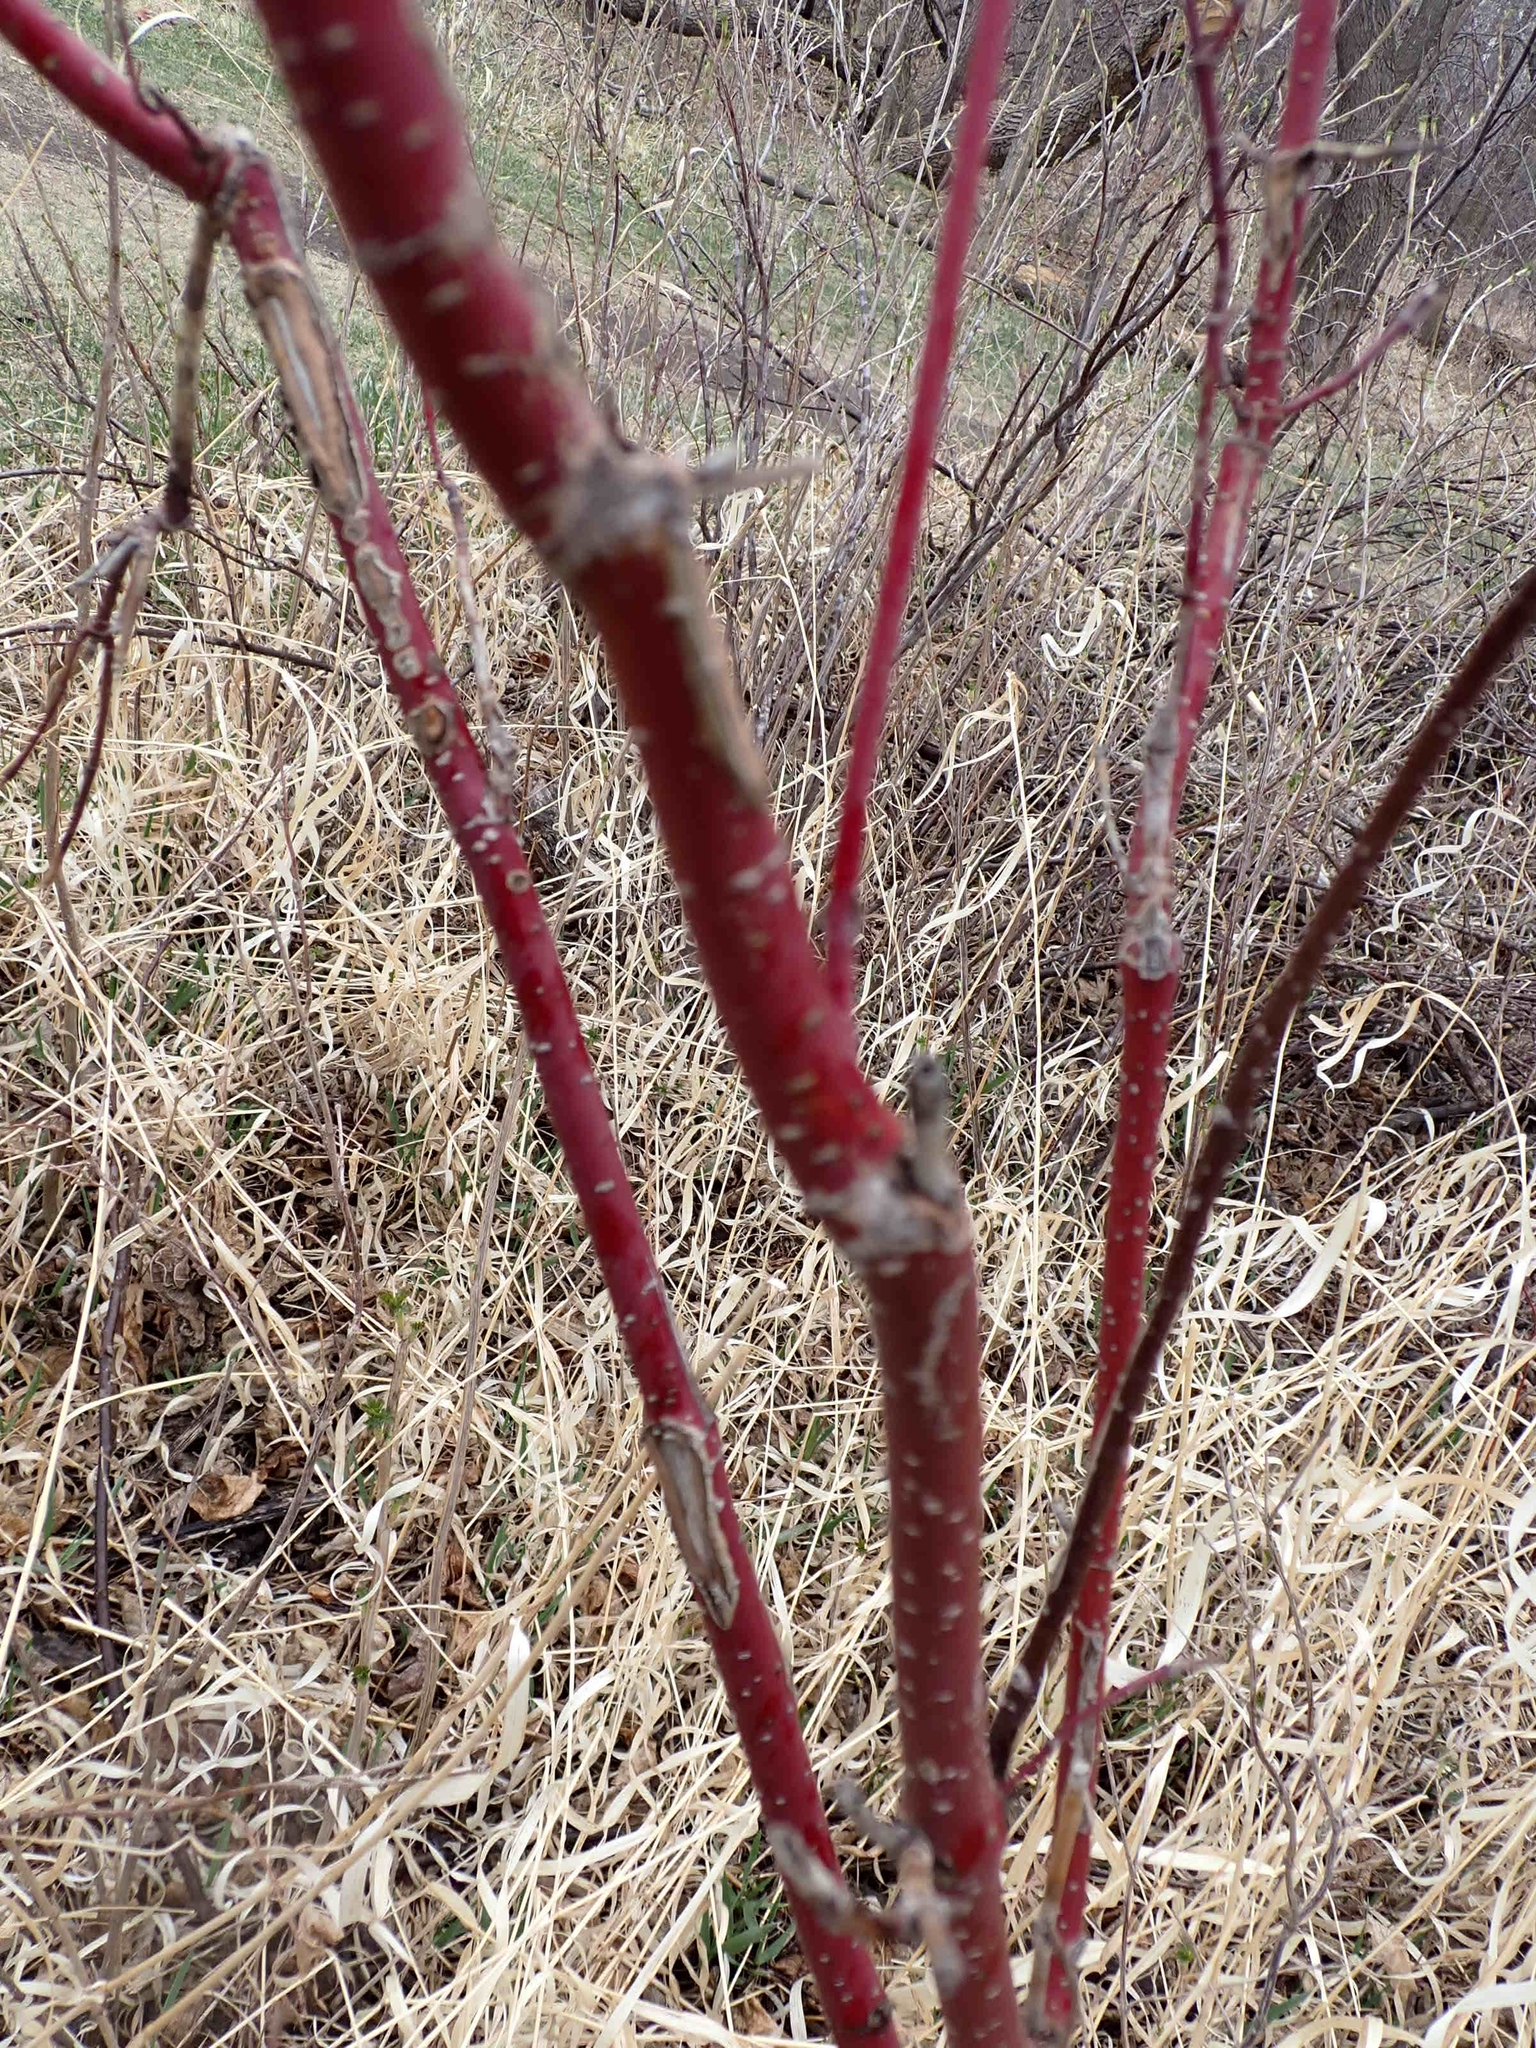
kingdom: Plantae
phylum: Tracheophyta
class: Magnoliopsida
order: Cornales
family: Cornaceae
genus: Cornus
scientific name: Cornus sericea
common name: Red-osier dogwood
